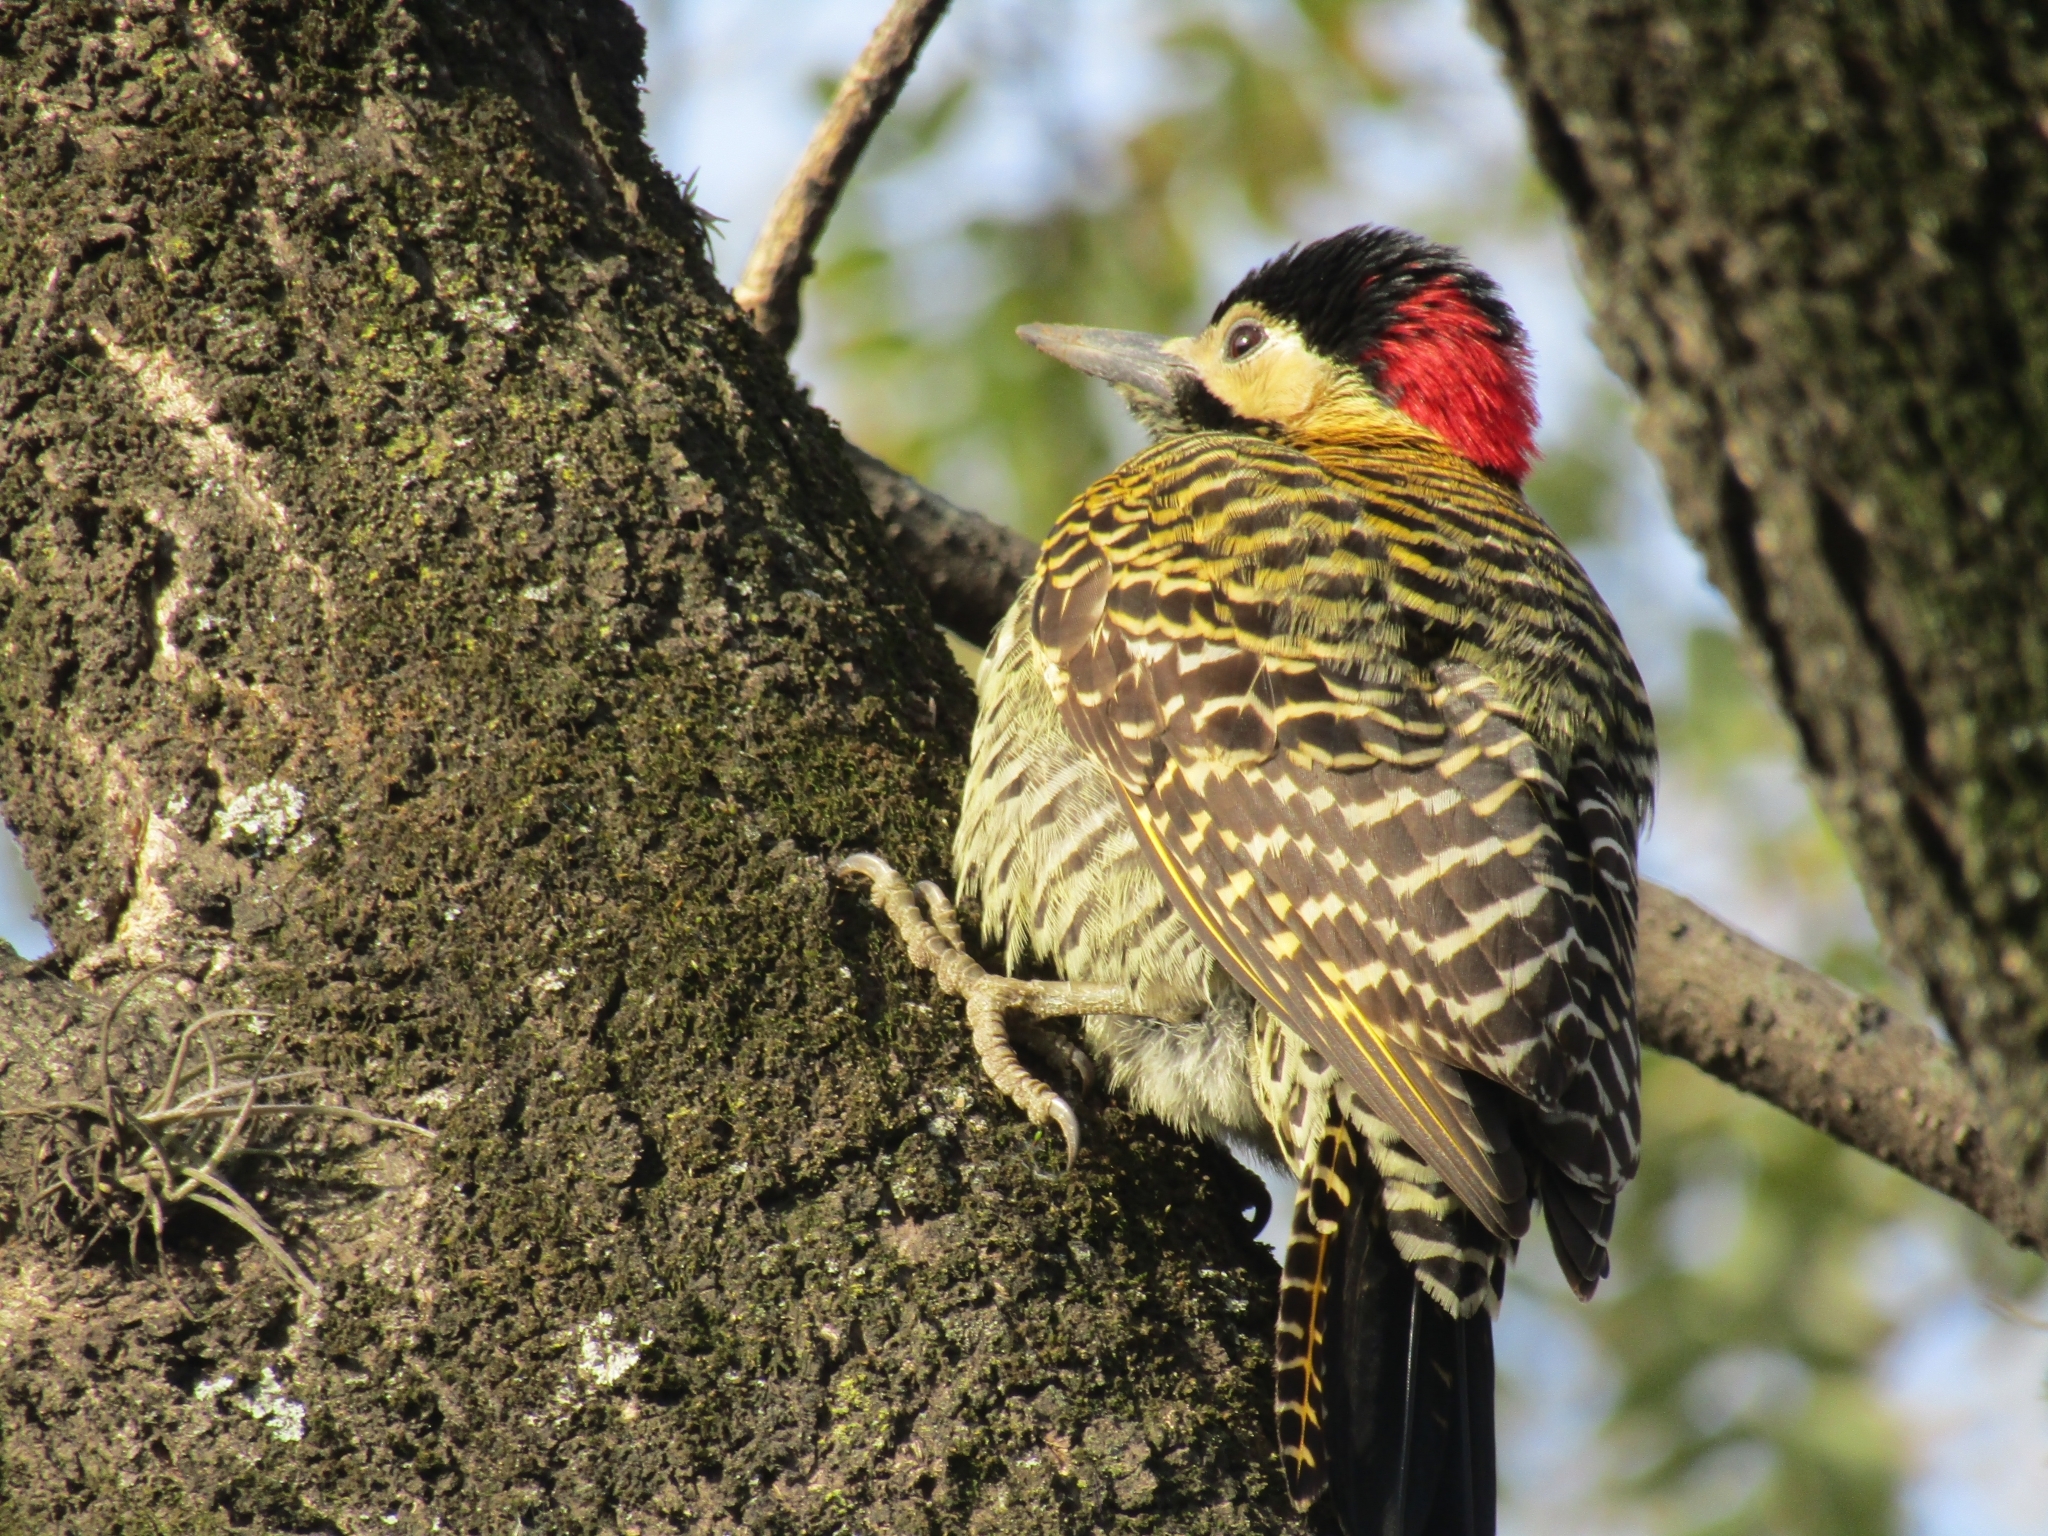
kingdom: Animalia
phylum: Chordata
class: Aves
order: Piciformes
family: Picidae
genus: Colaptes
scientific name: Colaptes melanochloros
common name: Green-barred woodpecker
